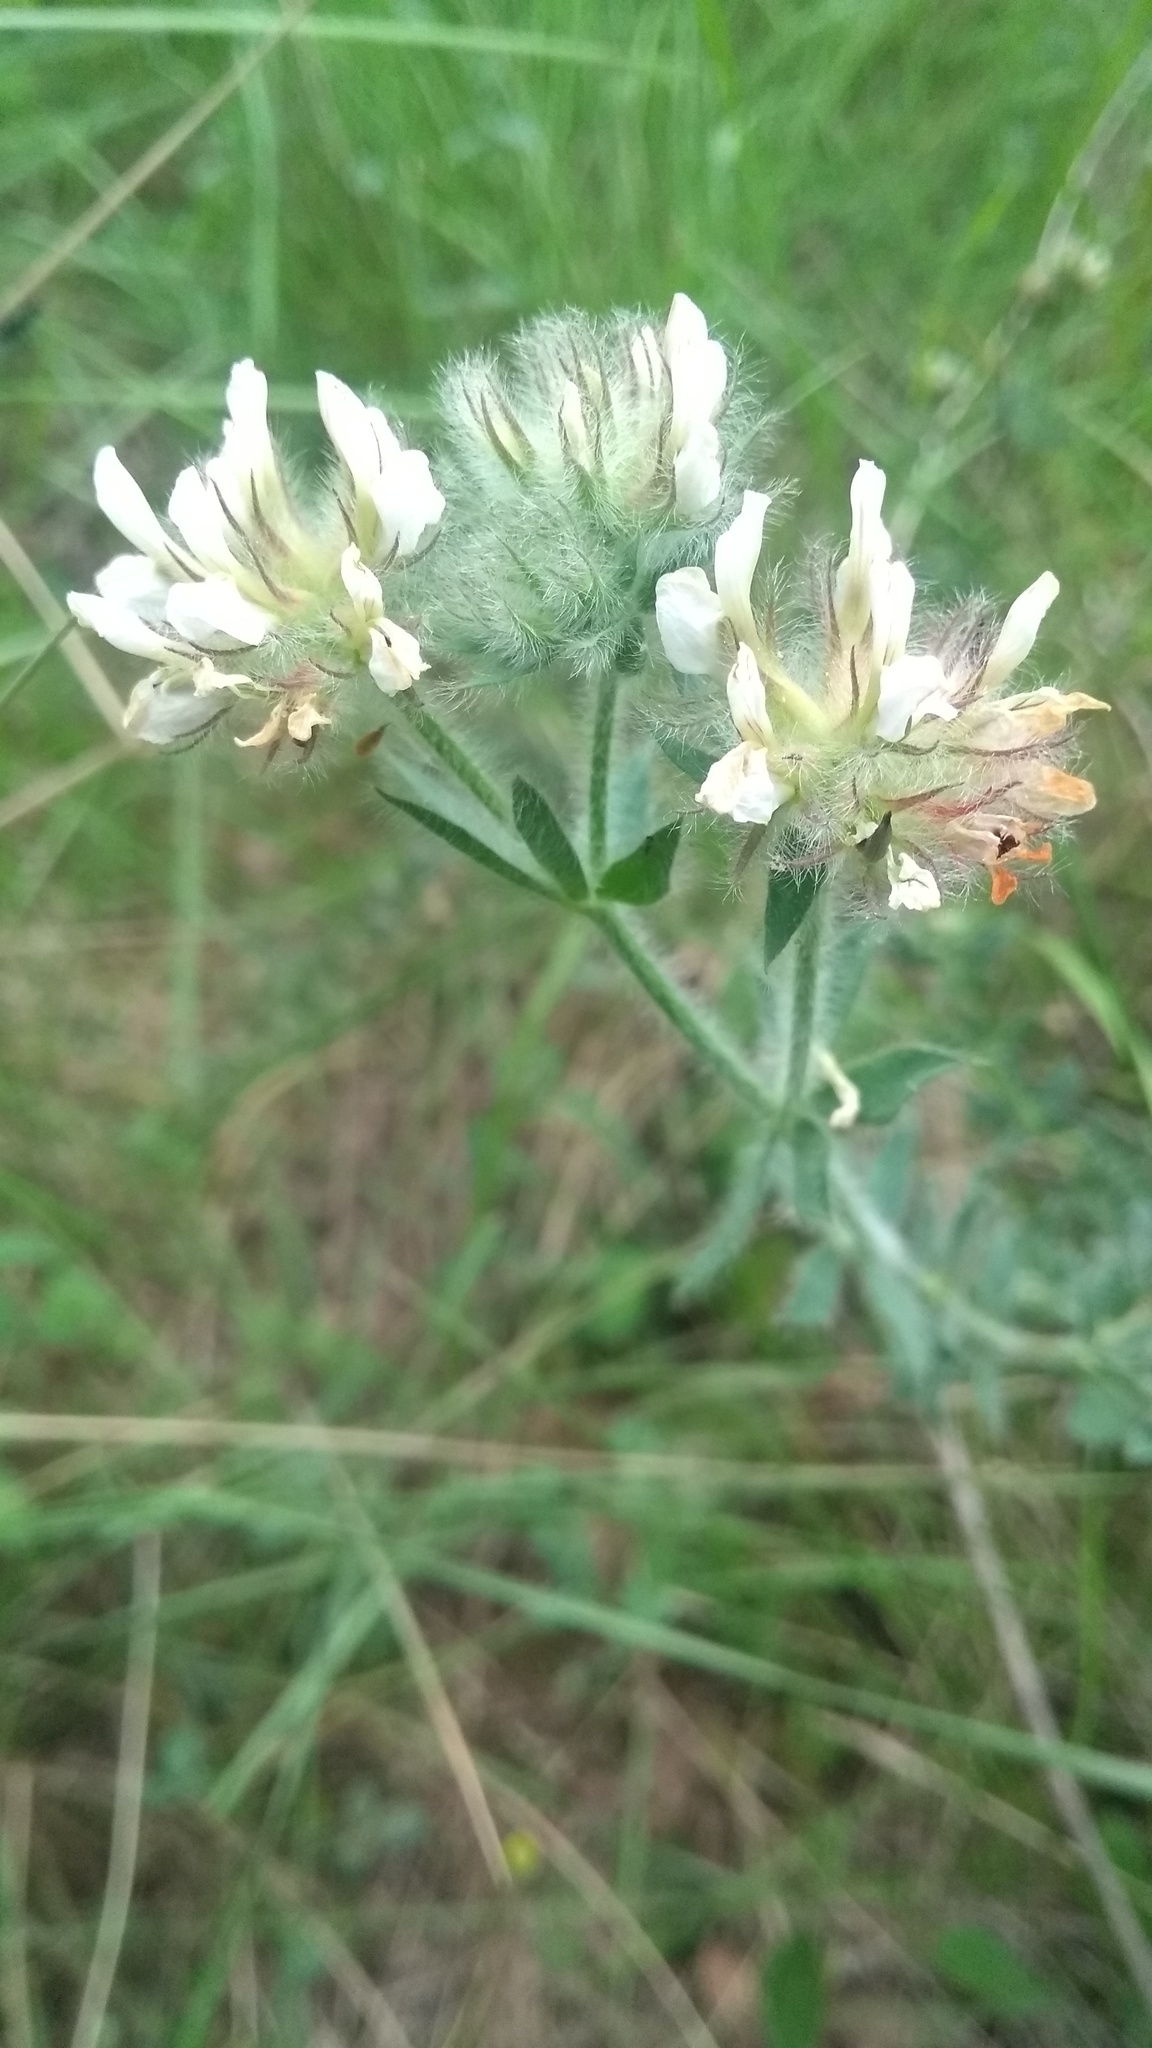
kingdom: Plantae
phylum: Tracheophyta
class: Magnoliopsida
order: Fabales
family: Fabaceae
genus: Lotus
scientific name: Lotus hirsutus
